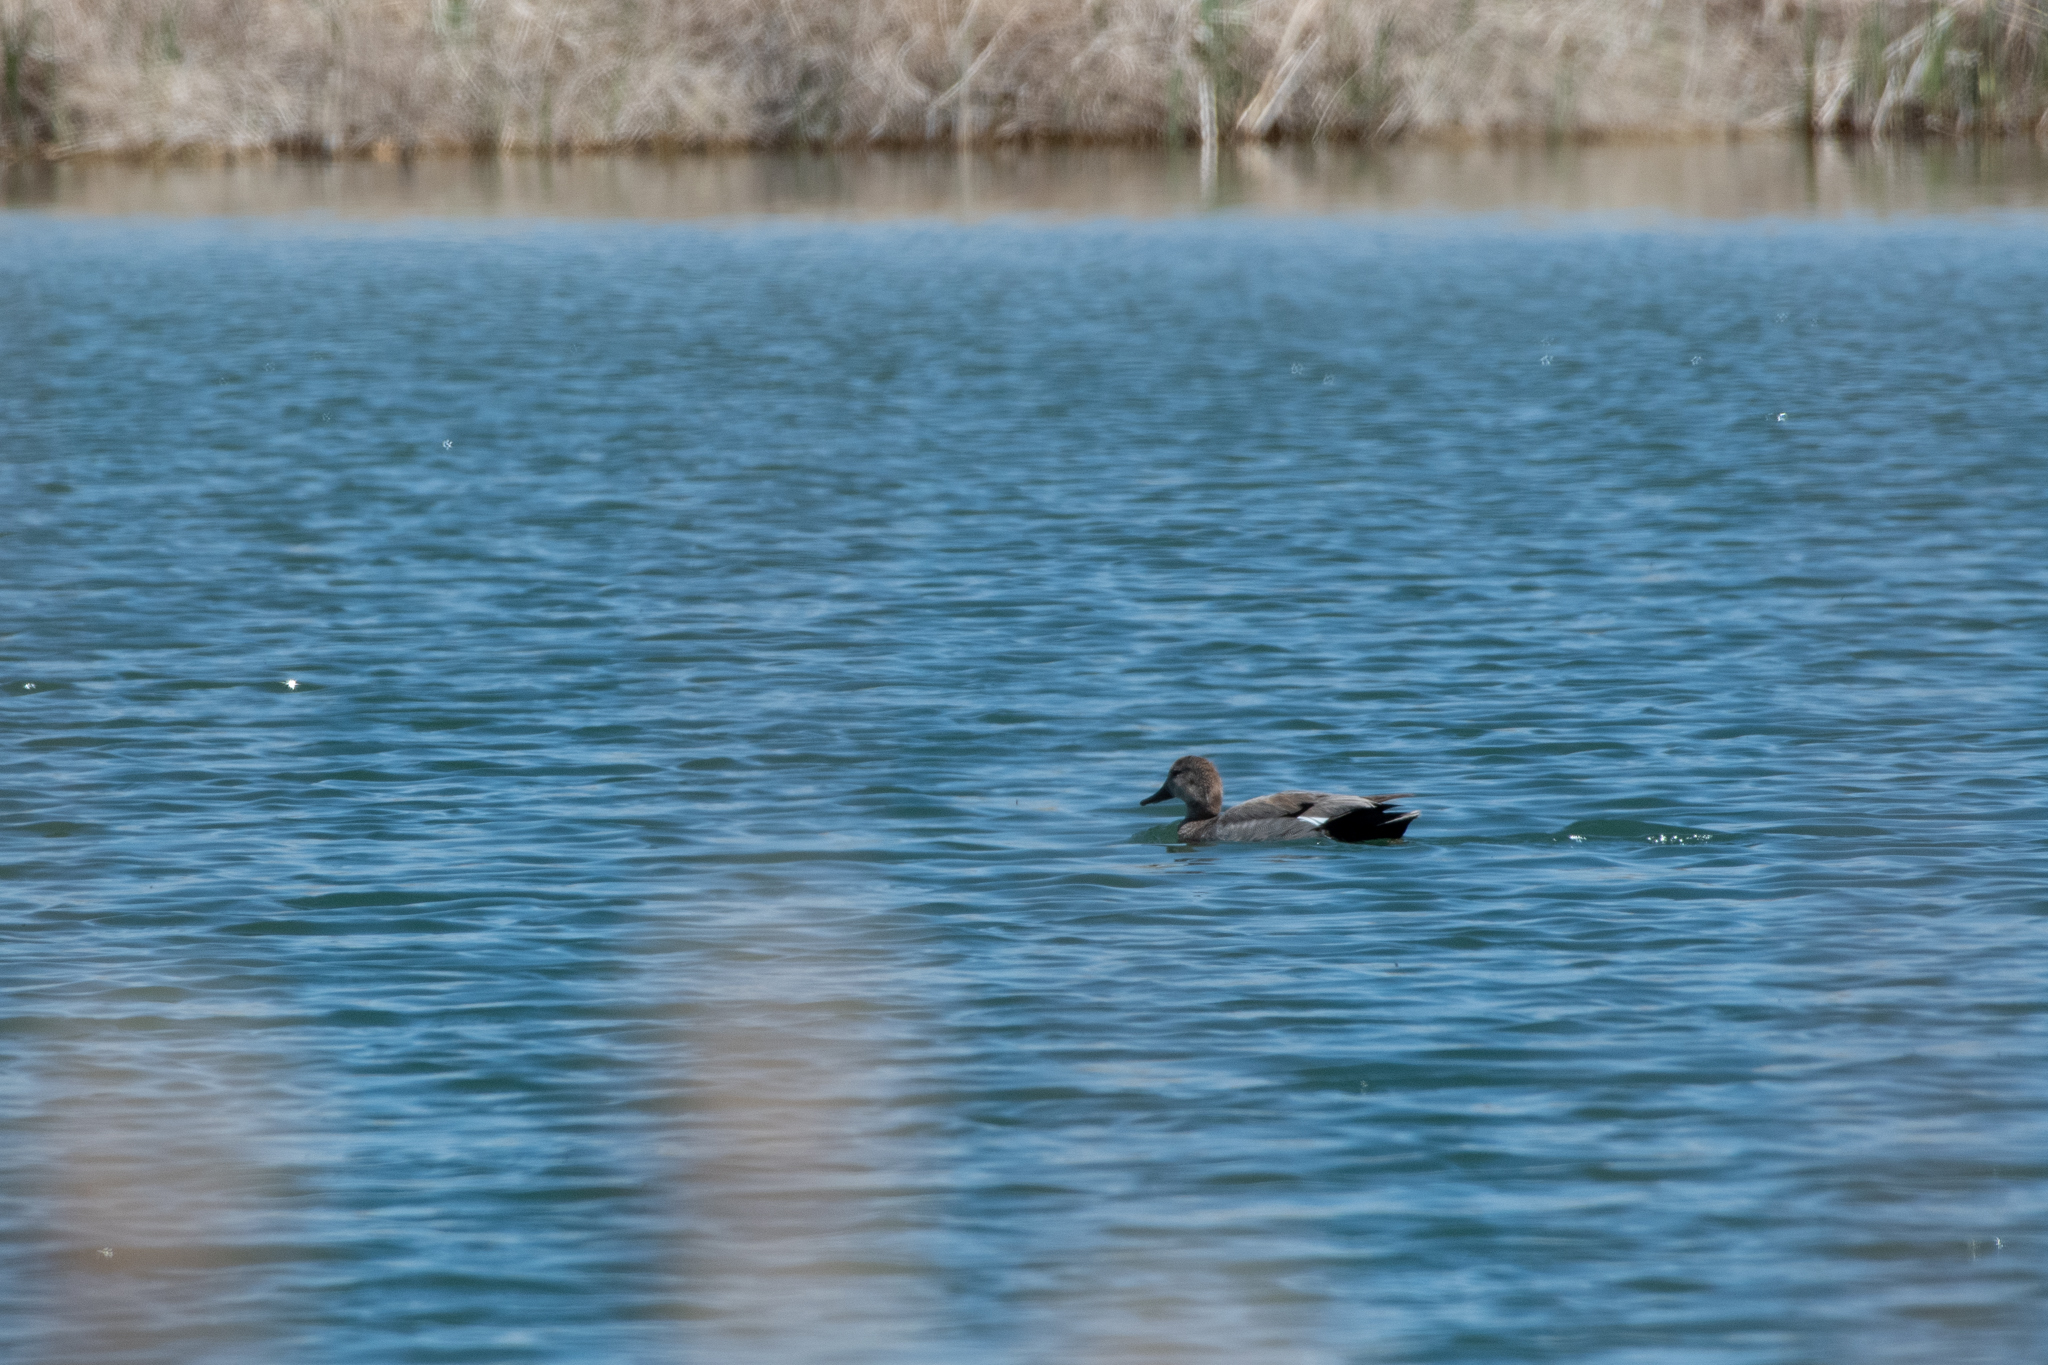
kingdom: Animalia
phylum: Chordata
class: Aves
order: Anseriformes
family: Anatidae
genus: Mareca
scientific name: Mareca strepera
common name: Gadwall
